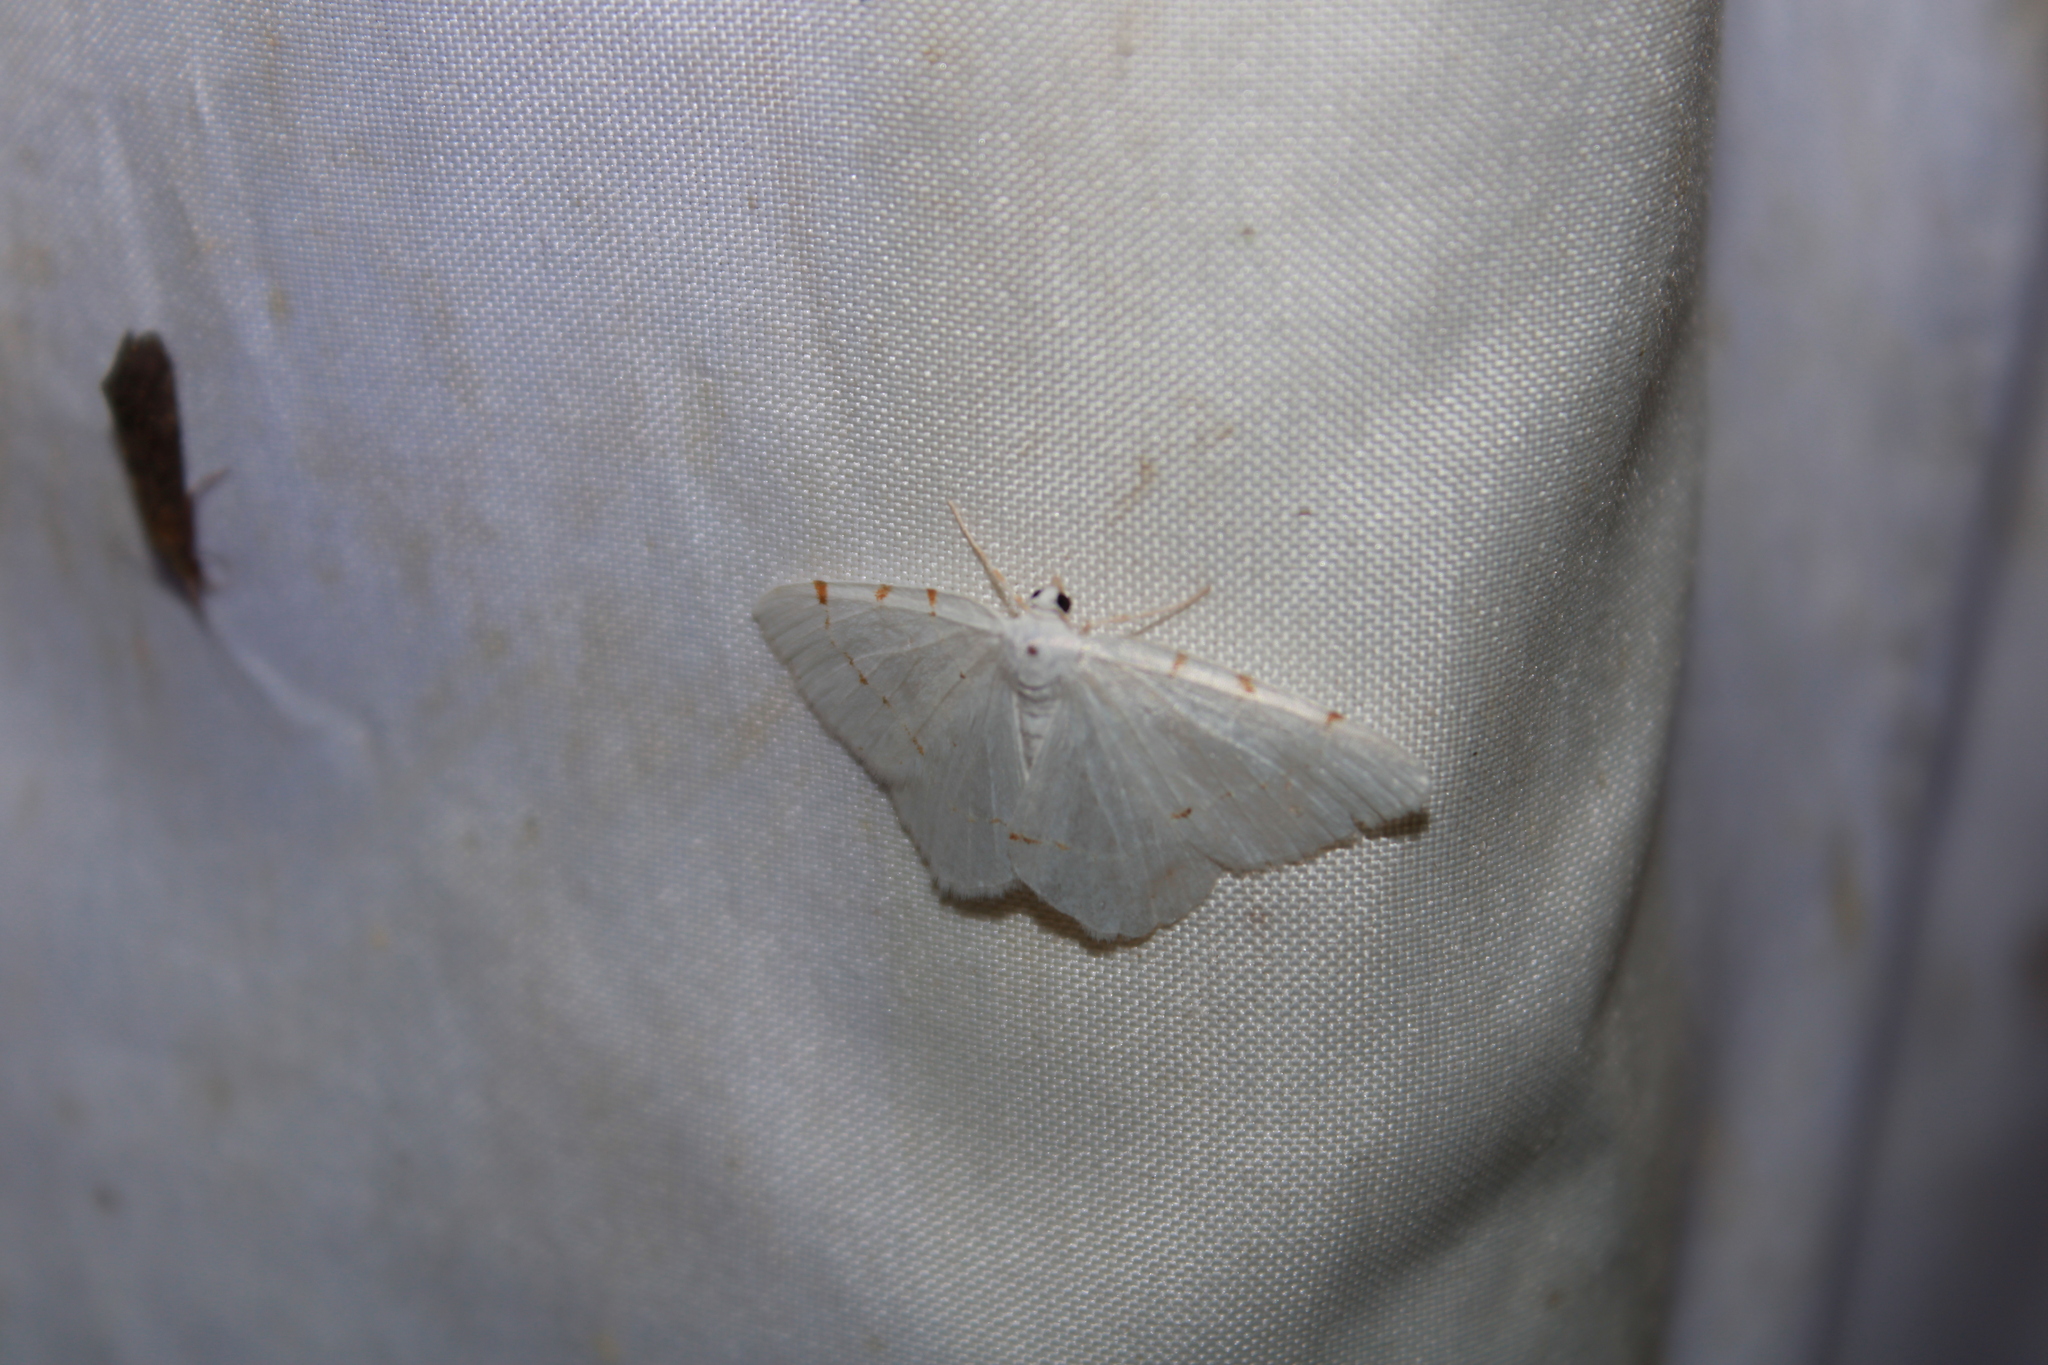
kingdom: Animalia
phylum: Arthropoda
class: Insecta
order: Lepidoptera
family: Geometridae
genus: Macaria
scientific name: Macaria pustularia
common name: Lesser maple spanworm moth
